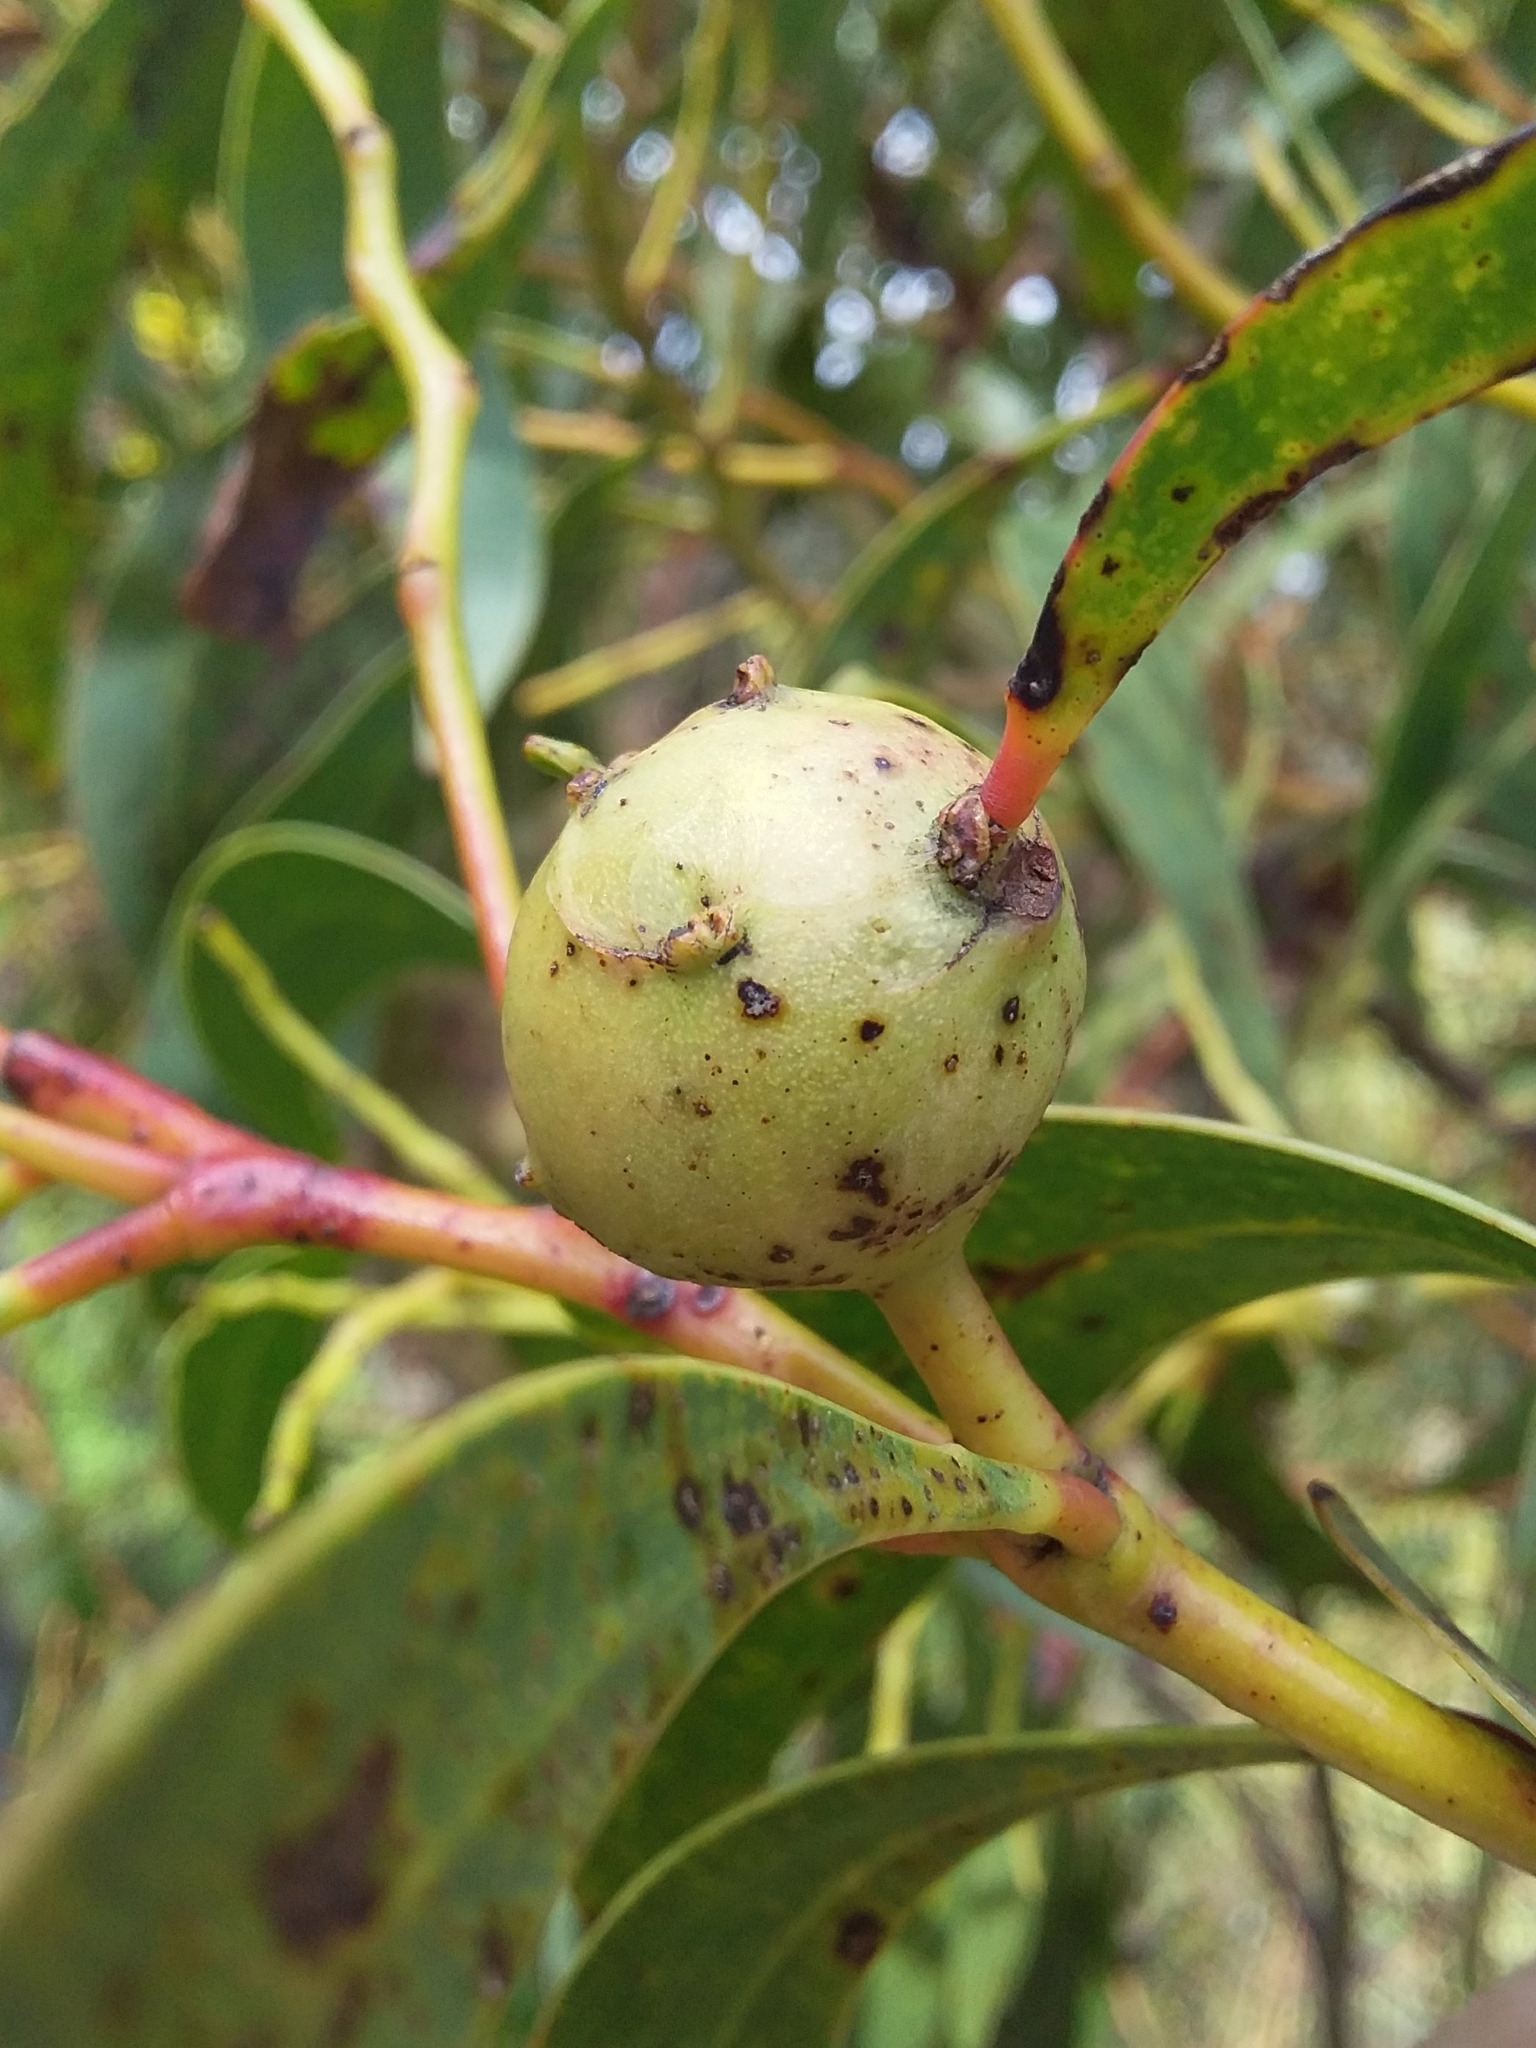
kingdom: Animalia
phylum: Arthropoda
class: Insecta
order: Hymenoptera
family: Pteromalidae
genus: Trichilogaster
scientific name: Trichilogaster signiventris
